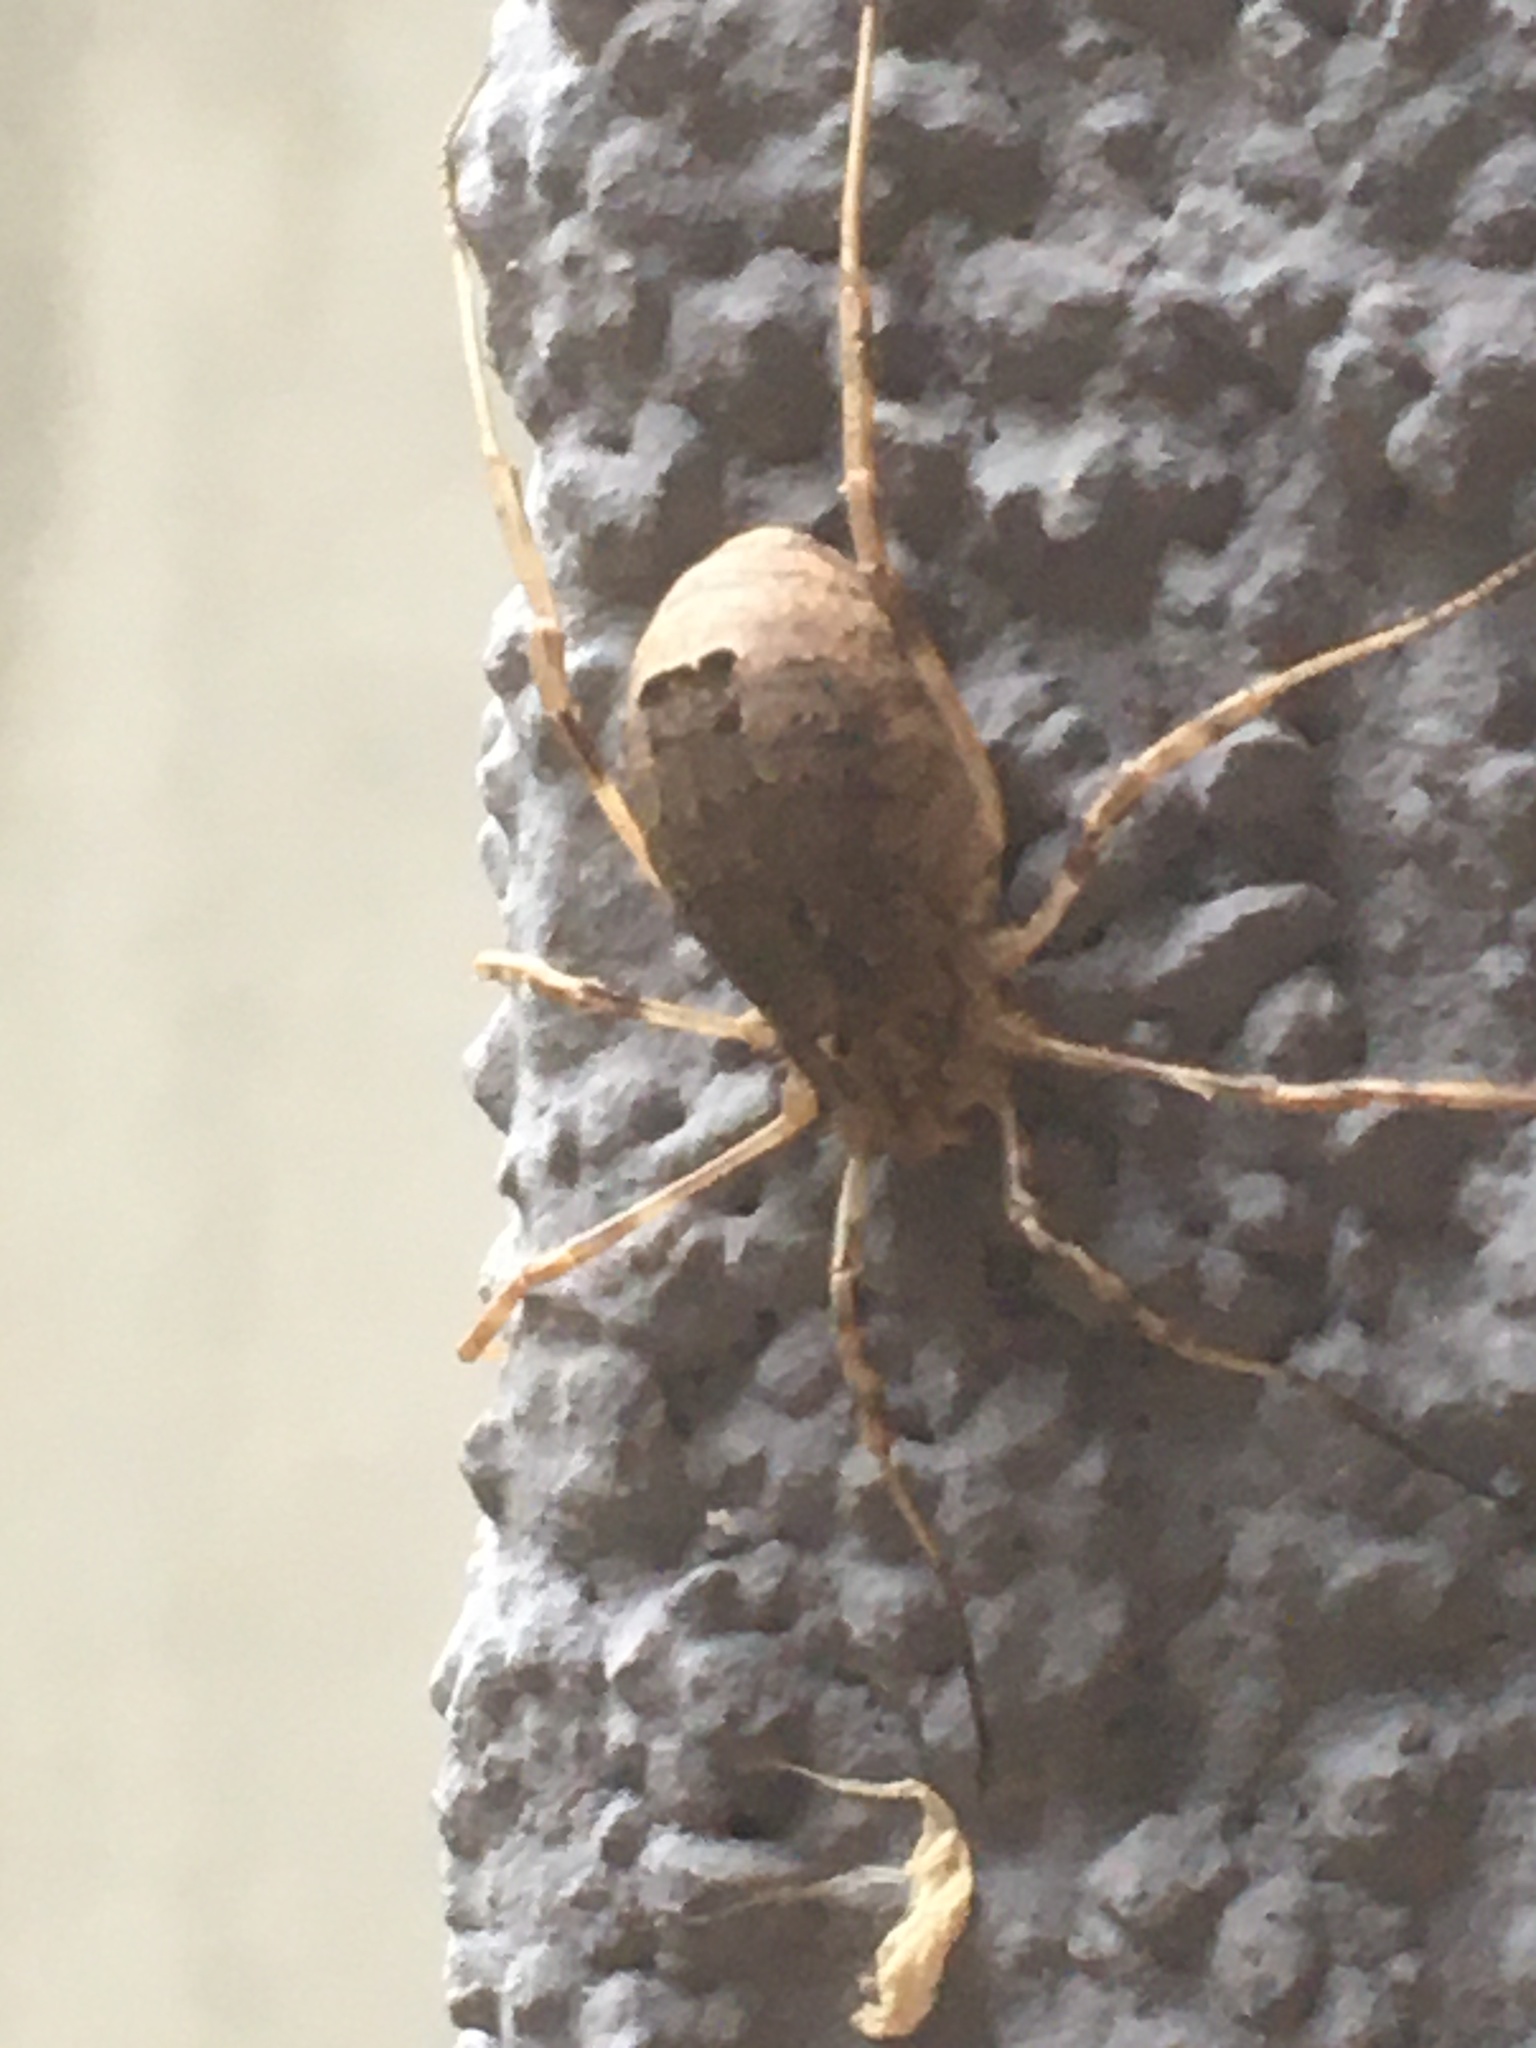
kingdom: Animalia
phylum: Arthropoda
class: Arachnida
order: Opiliones
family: Phalangiidae
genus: Odiellus
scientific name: Odiellus spinosus
